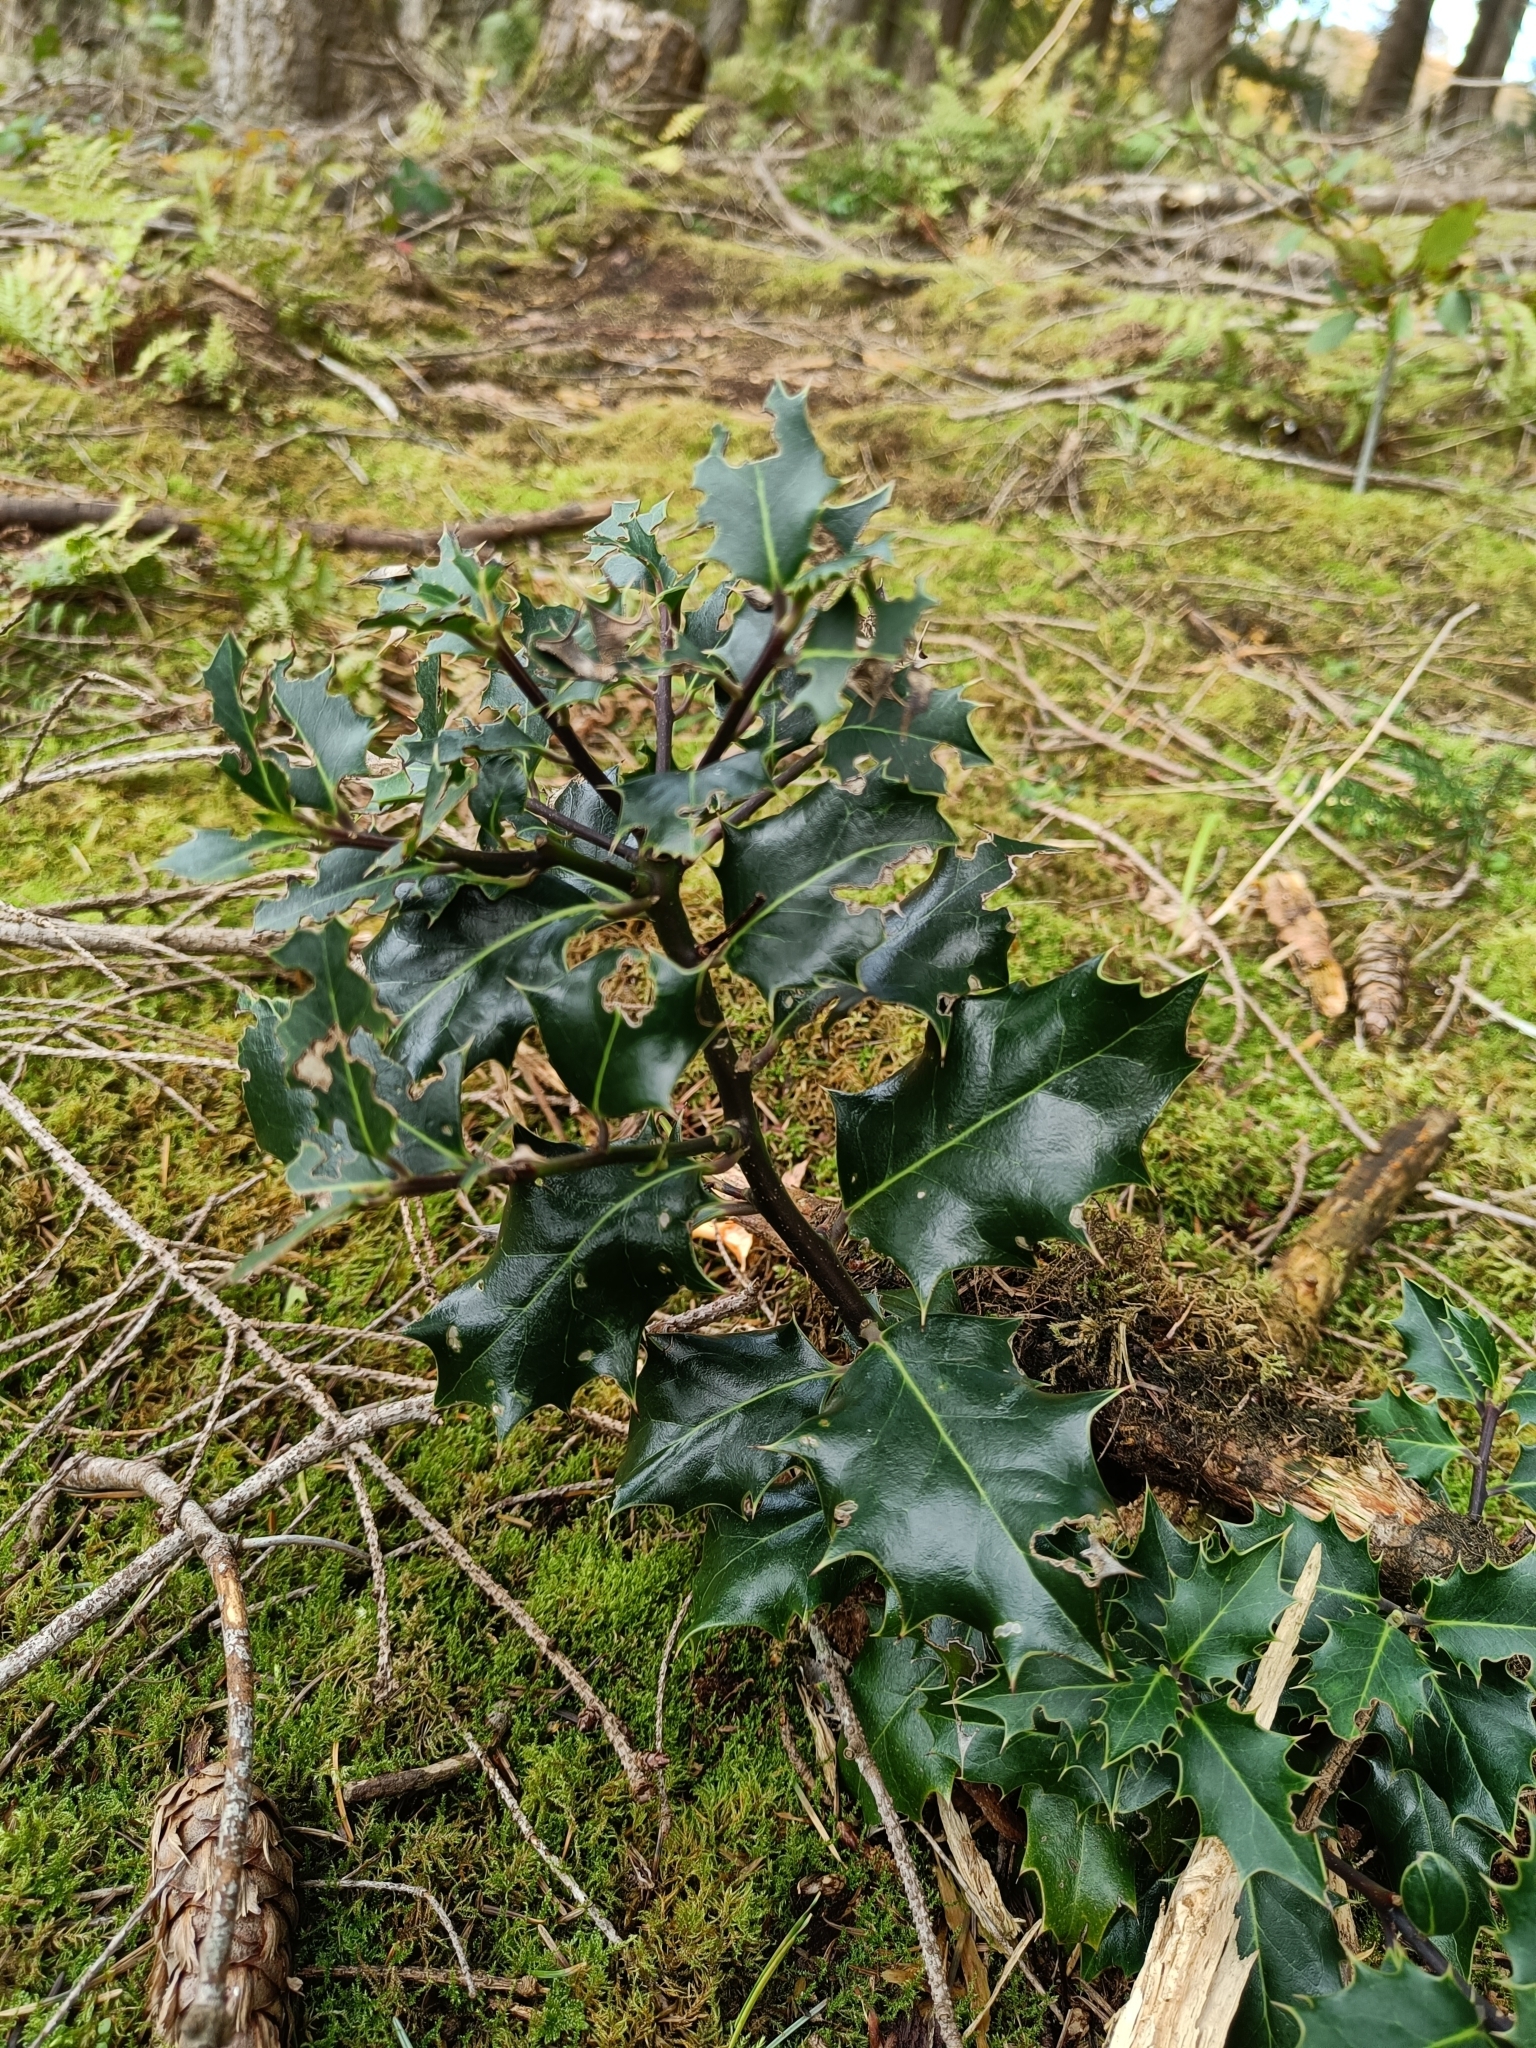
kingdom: Plantae
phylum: Tracheophyta
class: Magnoliopsida
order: Aquifoliales
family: Aquifoliaceae
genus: Ilex
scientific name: Ilex aquifolium
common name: English holly
